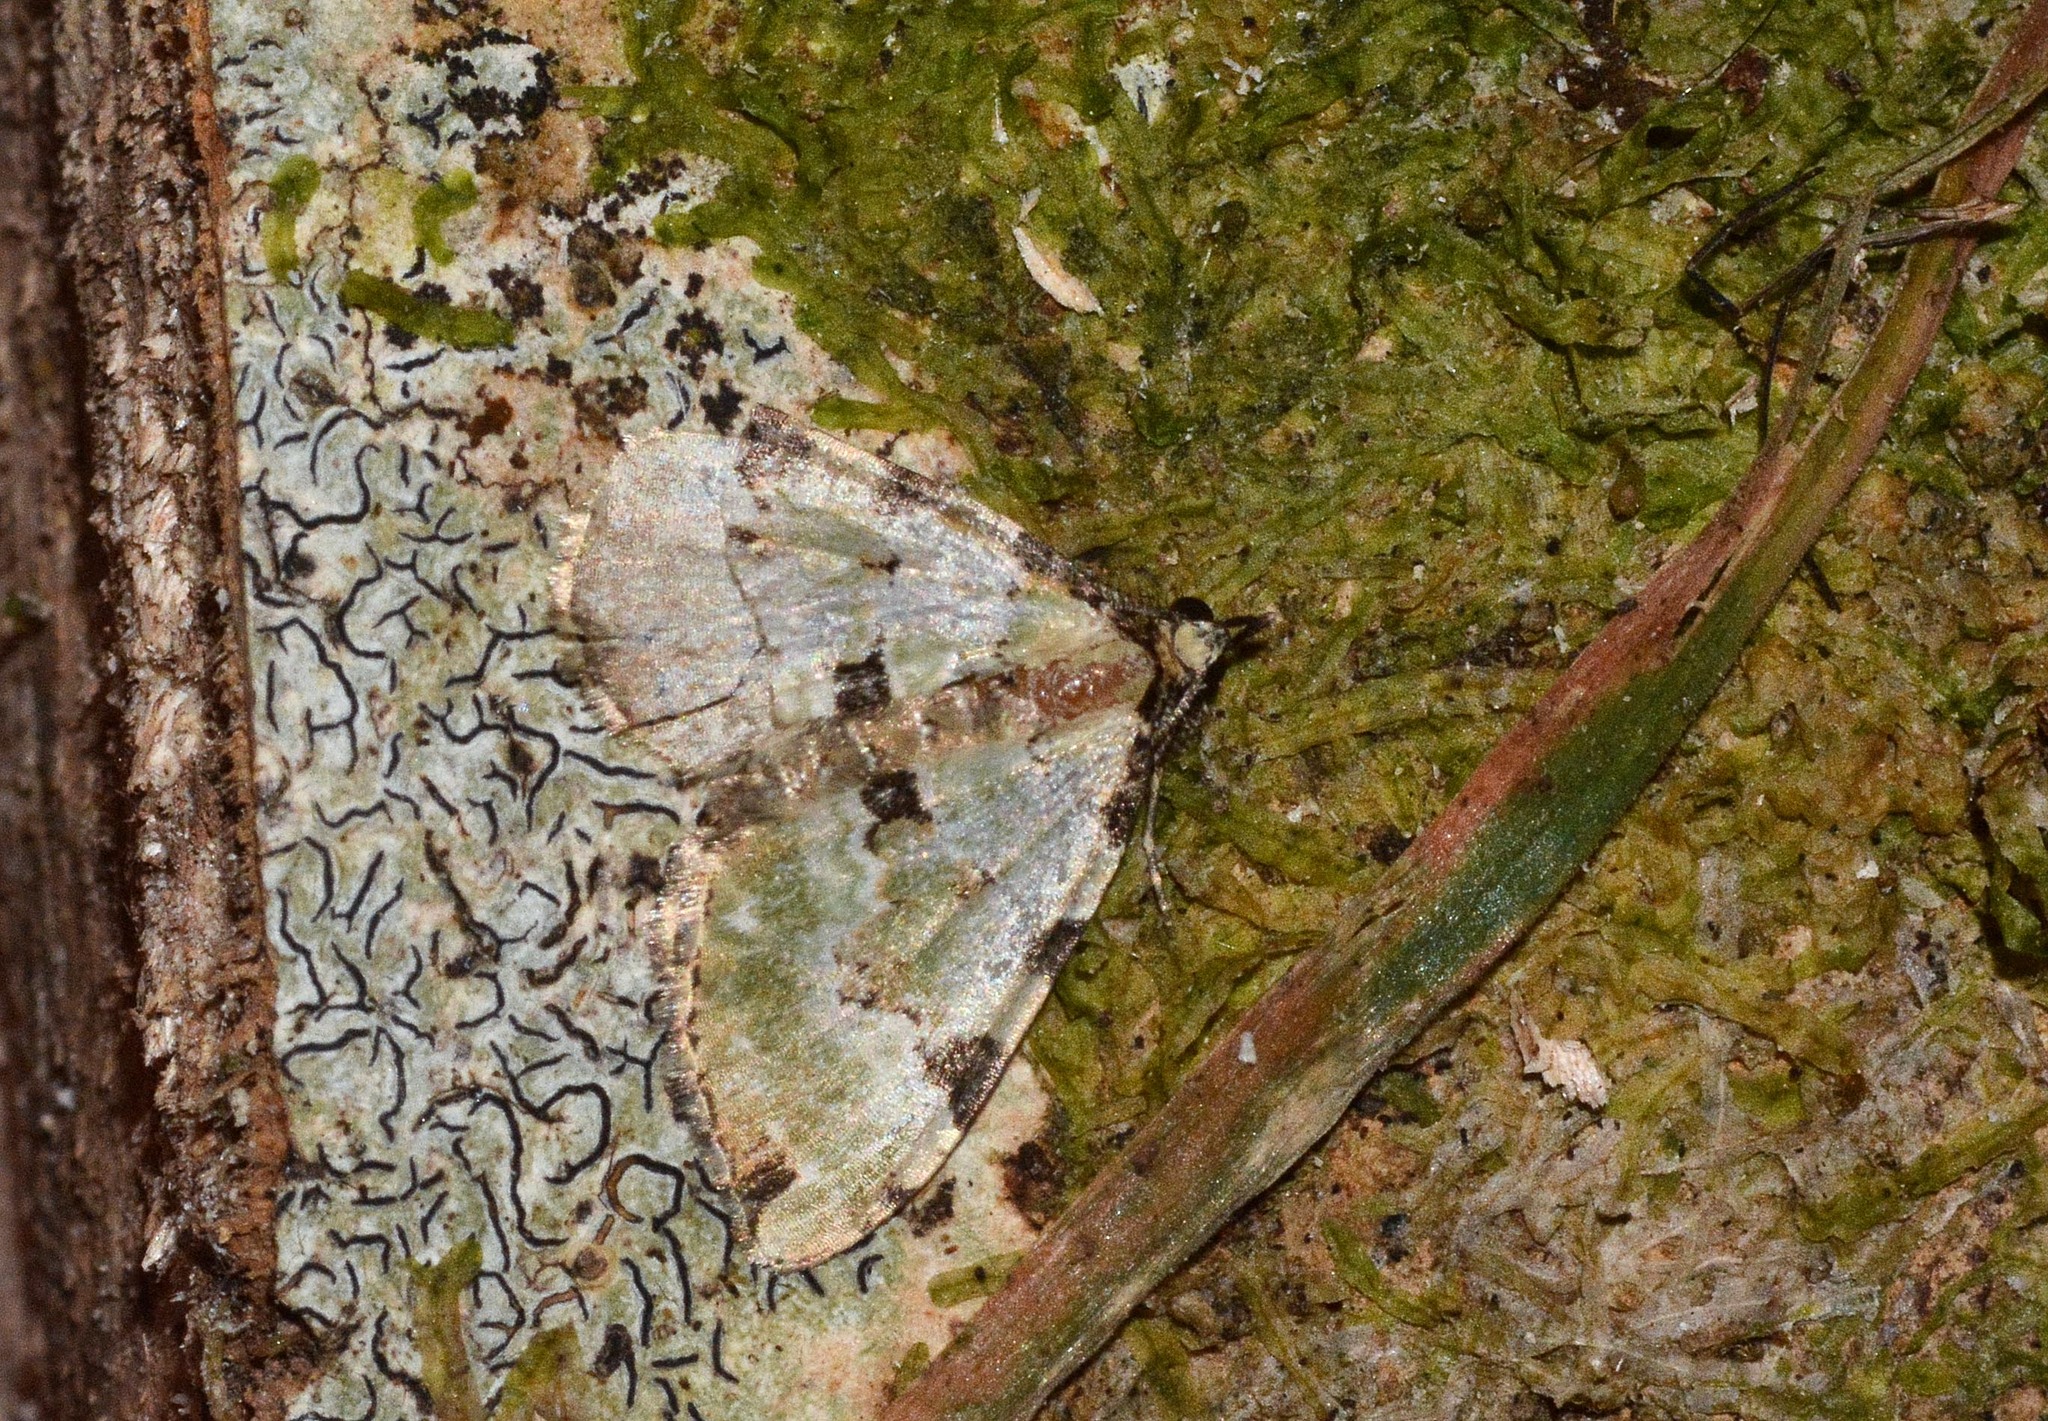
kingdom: Animalia
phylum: Arthropoda
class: Insecta
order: Lepidoptera
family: Geometridae
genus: Colostygia
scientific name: Colostygia pectinataria
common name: Green carpet
